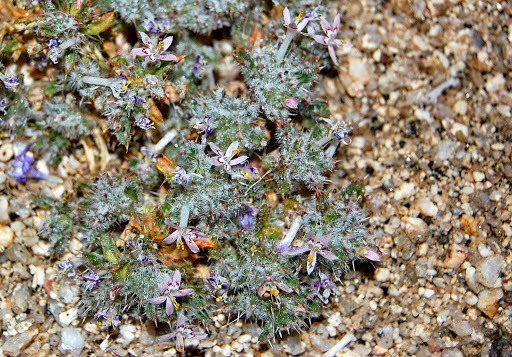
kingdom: Plantae
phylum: Tracheophyta
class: Magnoliopsida
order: Ericales
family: Polemoniaceae
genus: Loeseliastrum
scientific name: Loeseliastrum matthewsii
